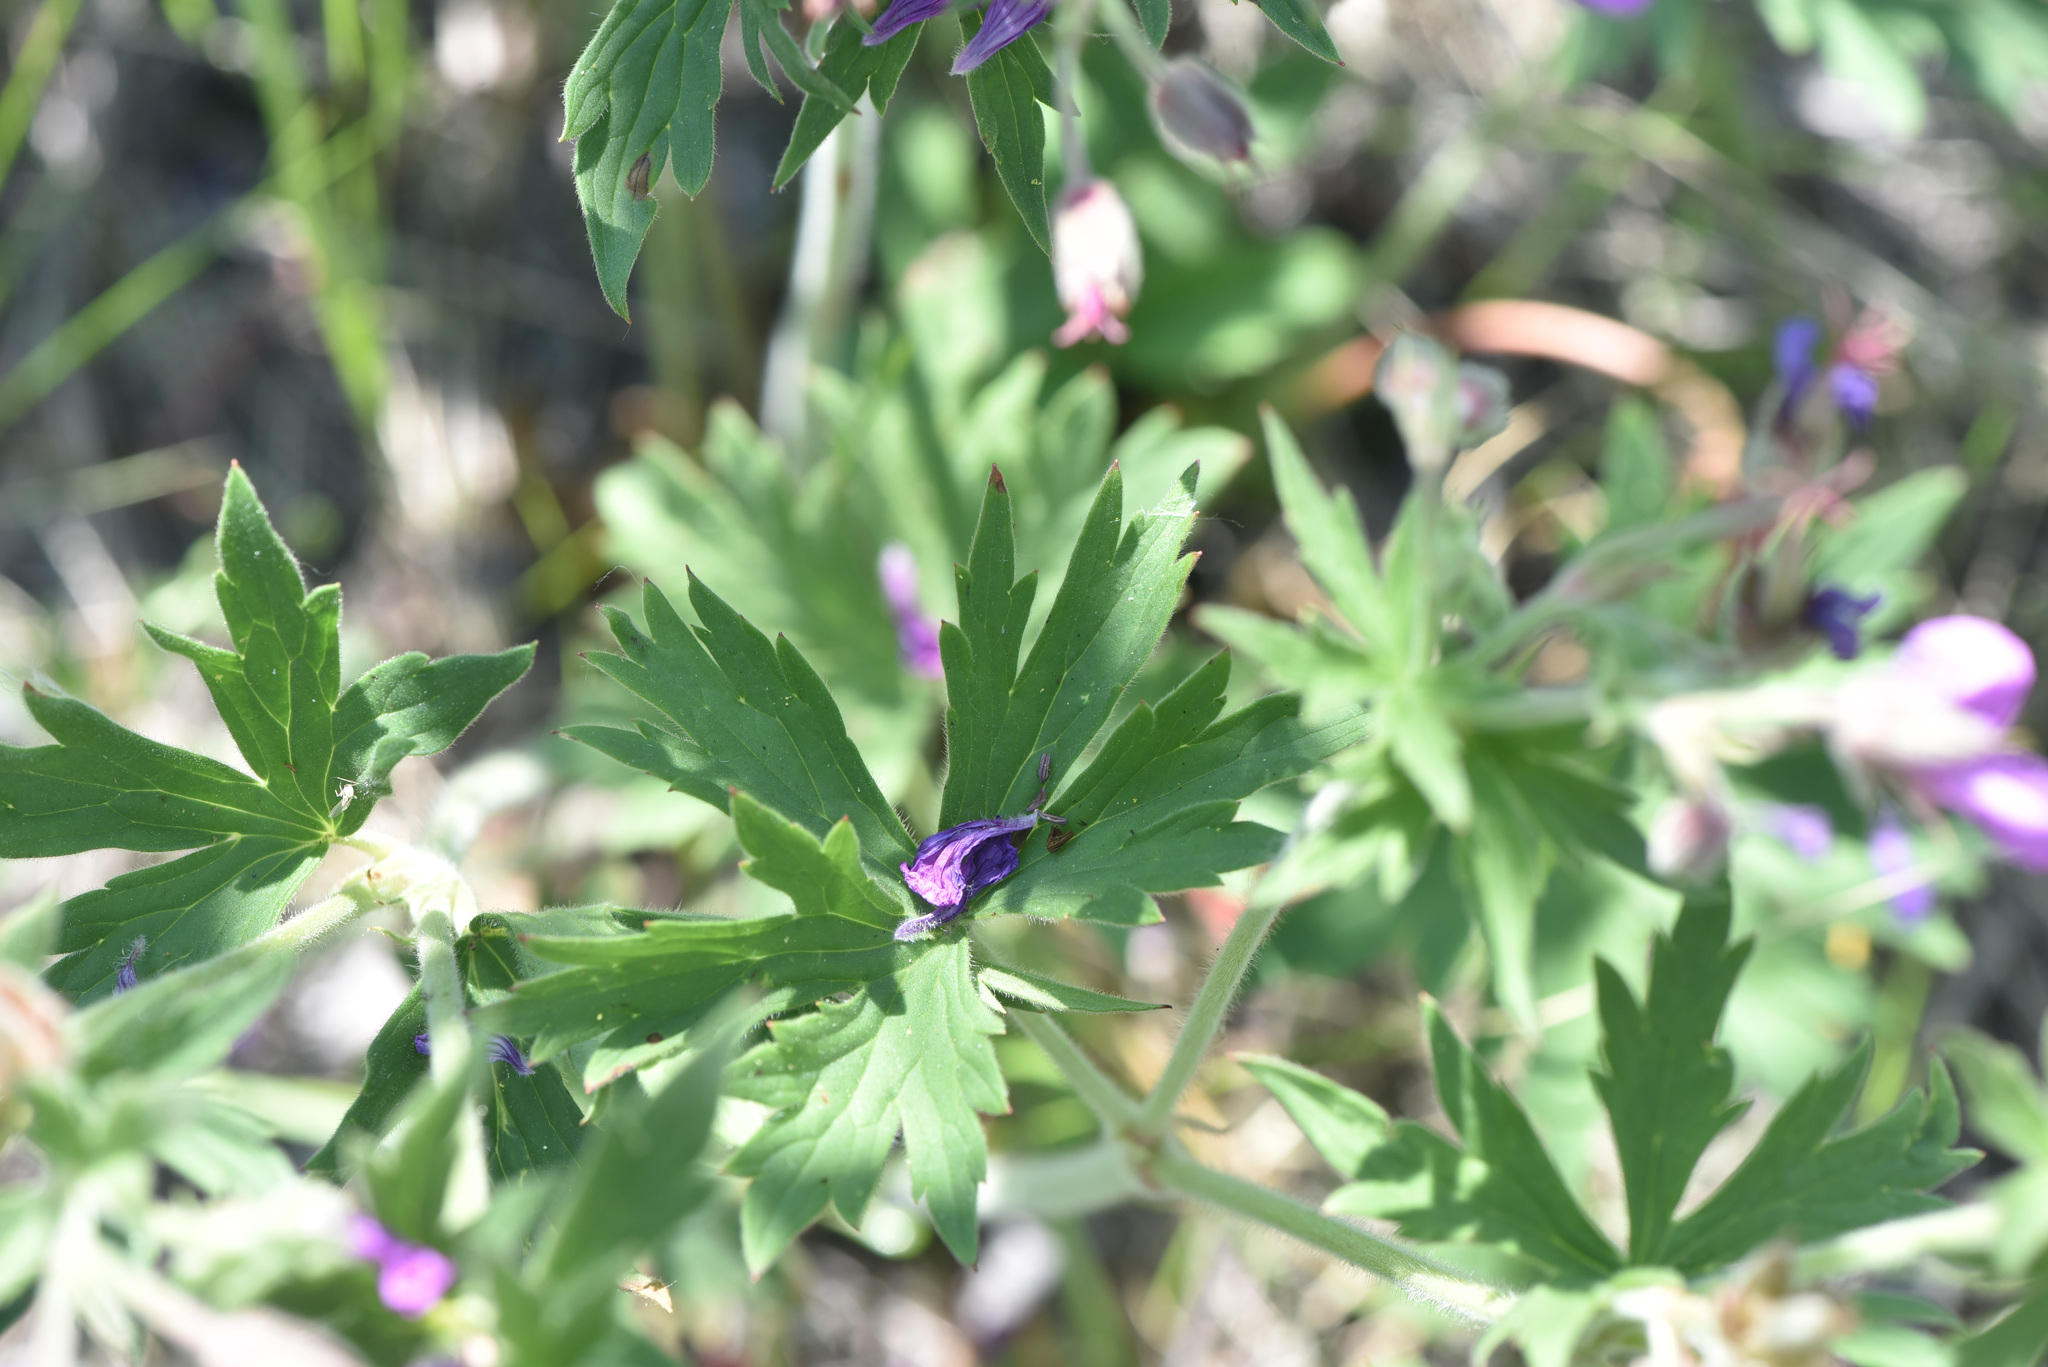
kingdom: Plantae
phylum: Tracheophyta
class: Magnoliopsida
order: Geraniales
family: Geraniaceae
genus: Geranium
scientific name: Geranium viscosissimum
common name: Purple geranium
